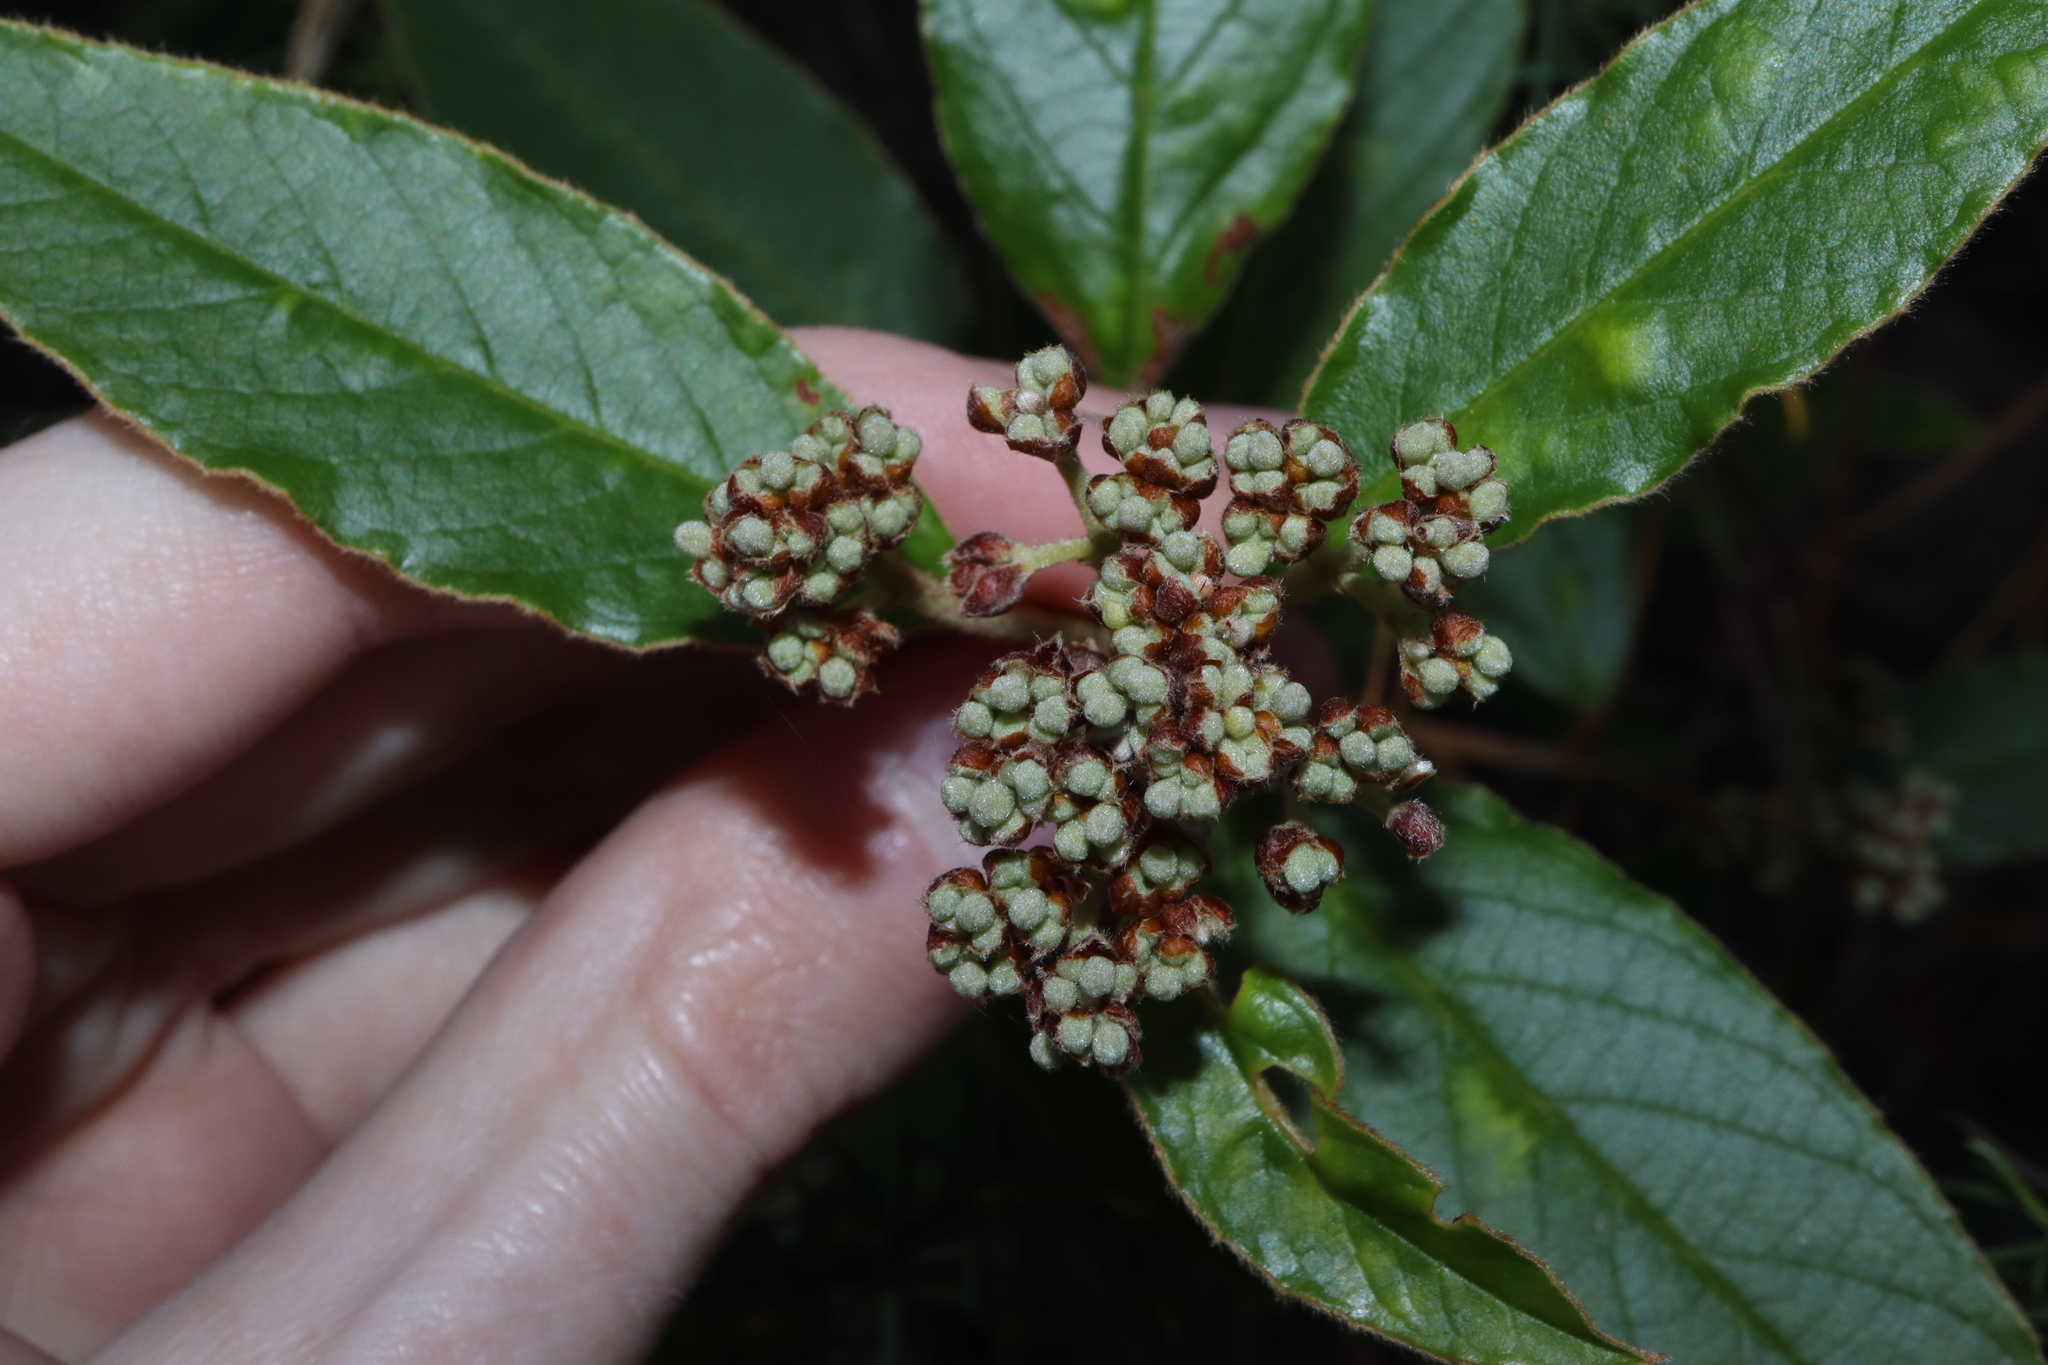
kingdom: Plantae
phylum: Tracheophyta
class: Magnoliopsida
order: Rosales
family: Rhamnaceae
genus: Pomaderris
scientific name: Pomaderris intermedia
